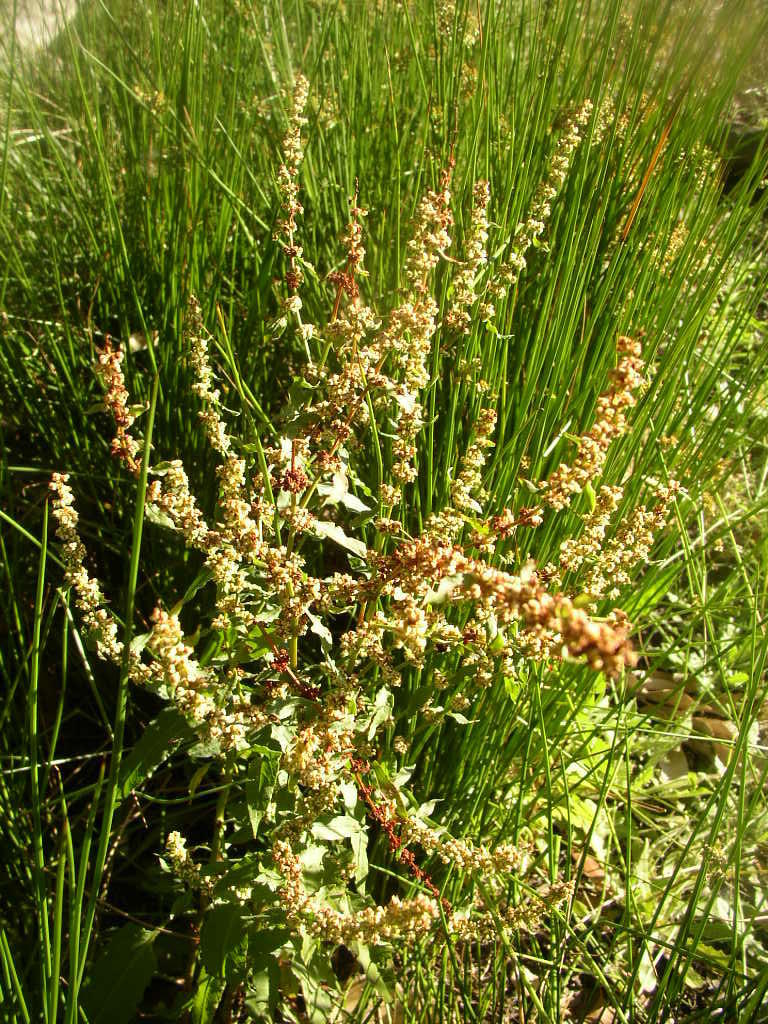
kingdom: Plantae
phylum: Tracheophyta
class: Magnoliopsida
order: Caryophyllales
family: Polygonaceae
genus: Rumex
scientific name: Rumex acetosella
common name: Common sheep sorrel
